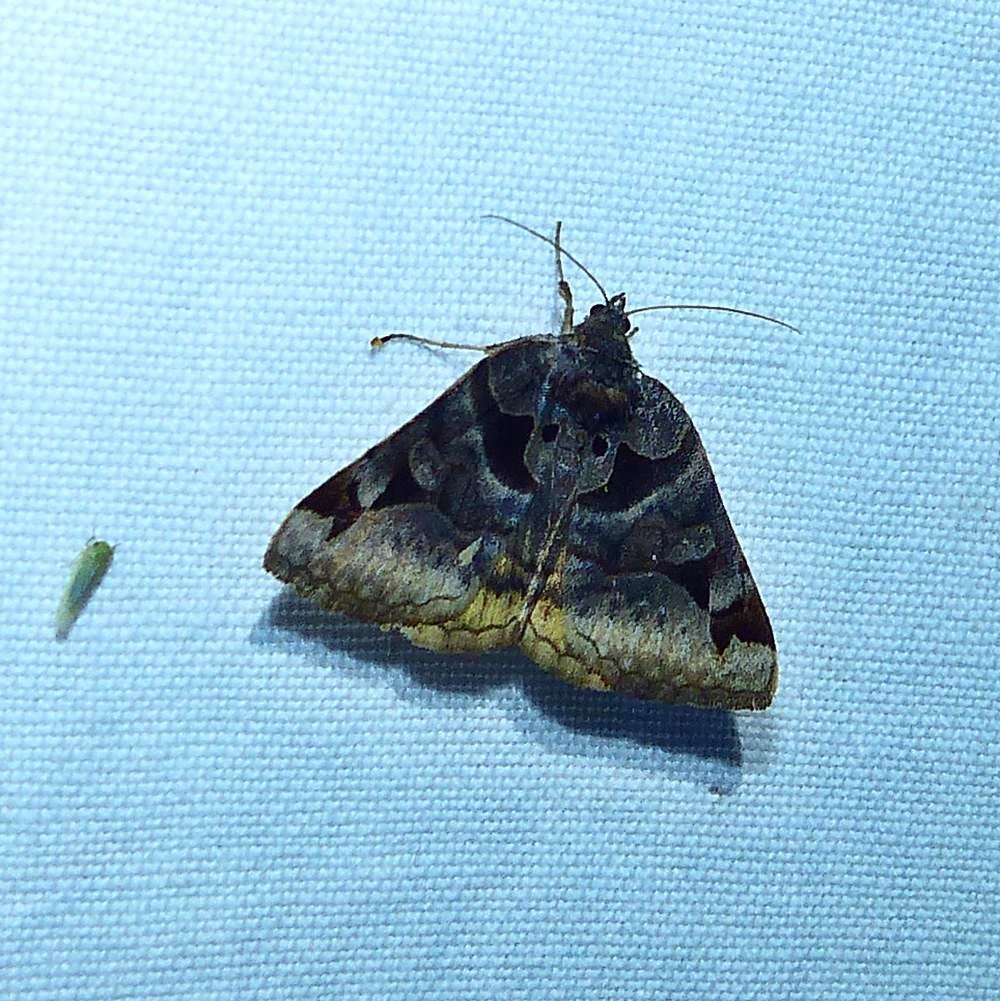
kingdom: Animalia
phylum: Arthropoda
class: Insecta
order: Lepidoptera
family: Erebidae
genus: Euclidia
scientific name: Euclidia cuspidea
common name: Toothed somberwing
